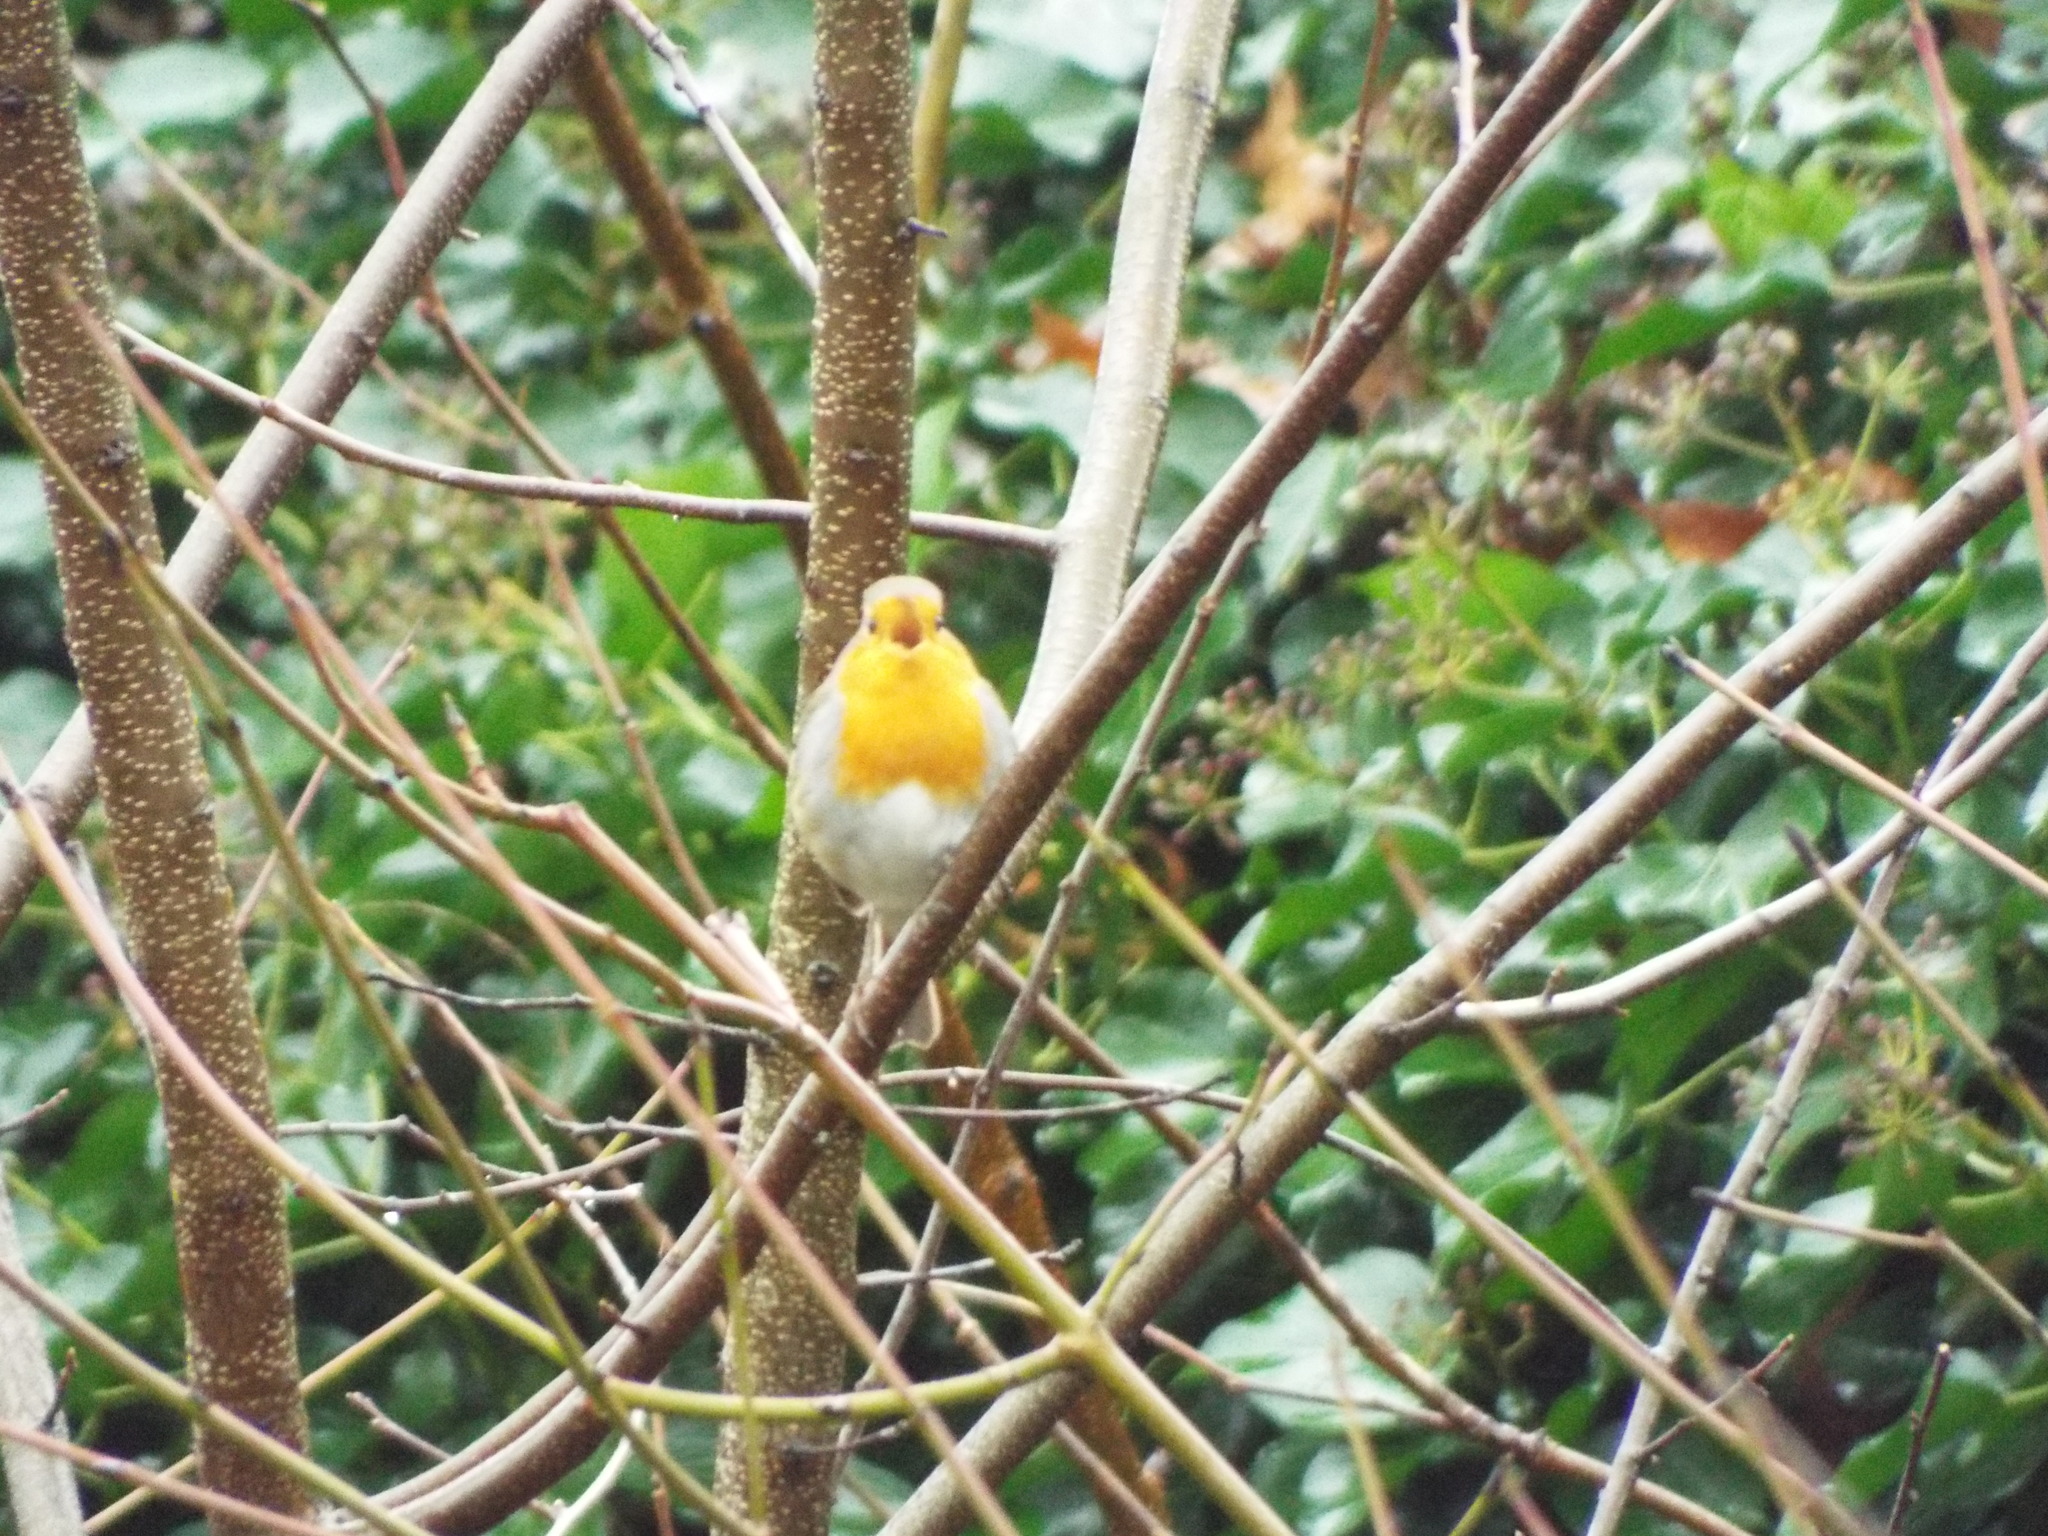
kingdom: Animalia
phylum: Chordata
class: Aves
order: Passeriformes
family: Muscicapidae
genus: Erithacus
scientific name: Erithacus rubecula
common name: European robin
